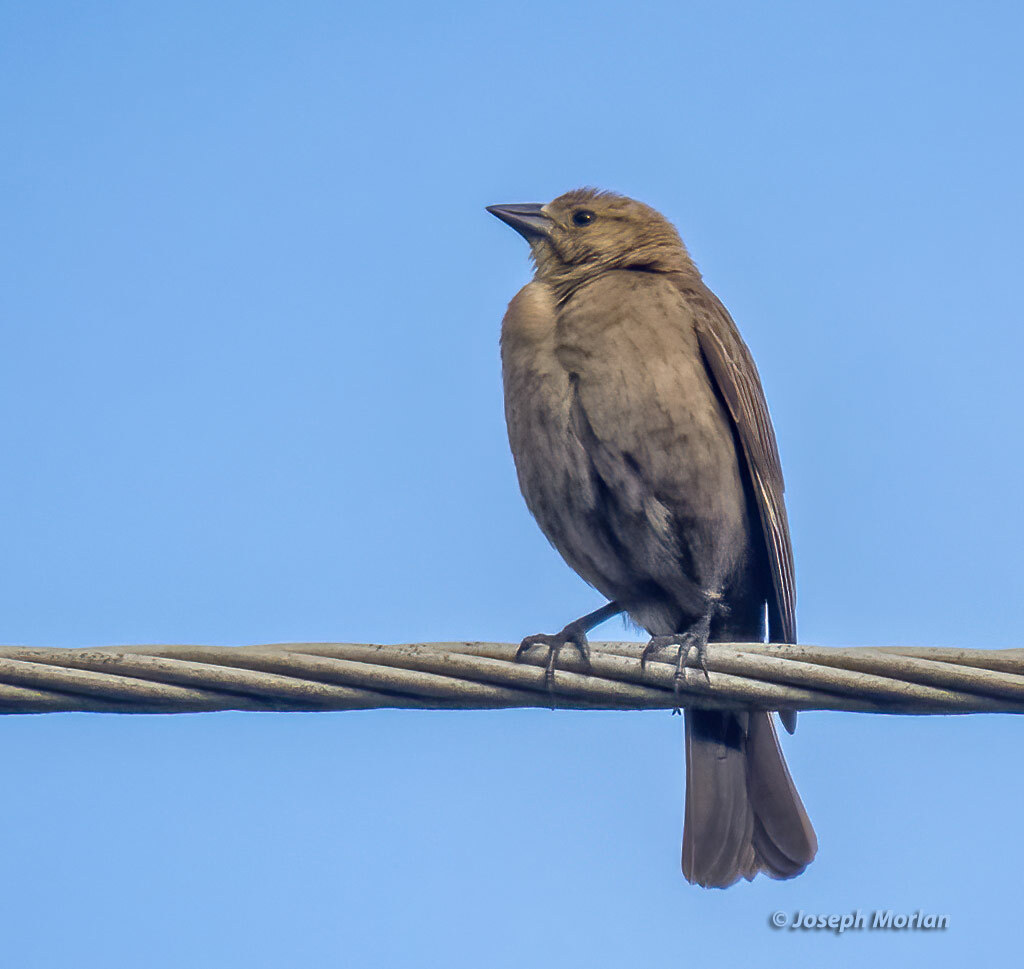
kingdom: Animalia
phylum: Chordata
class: Aves
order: Passeriformes
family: Icteridae
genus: Molothrus
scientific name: Molothrus ater
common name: Brown-headed cowbird
